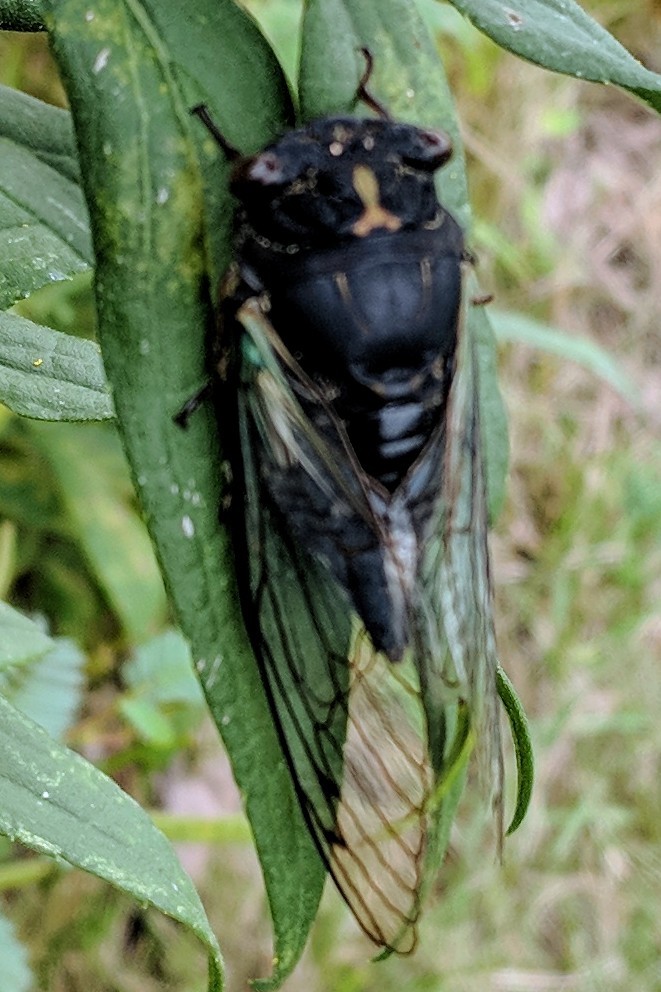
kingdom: Animalia
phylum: Arthropoda
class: Insecta
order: Hemiptera
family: Cicadidae
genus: Neotibicen
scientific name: Neotibicen lyricen
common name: Lyric cicada
